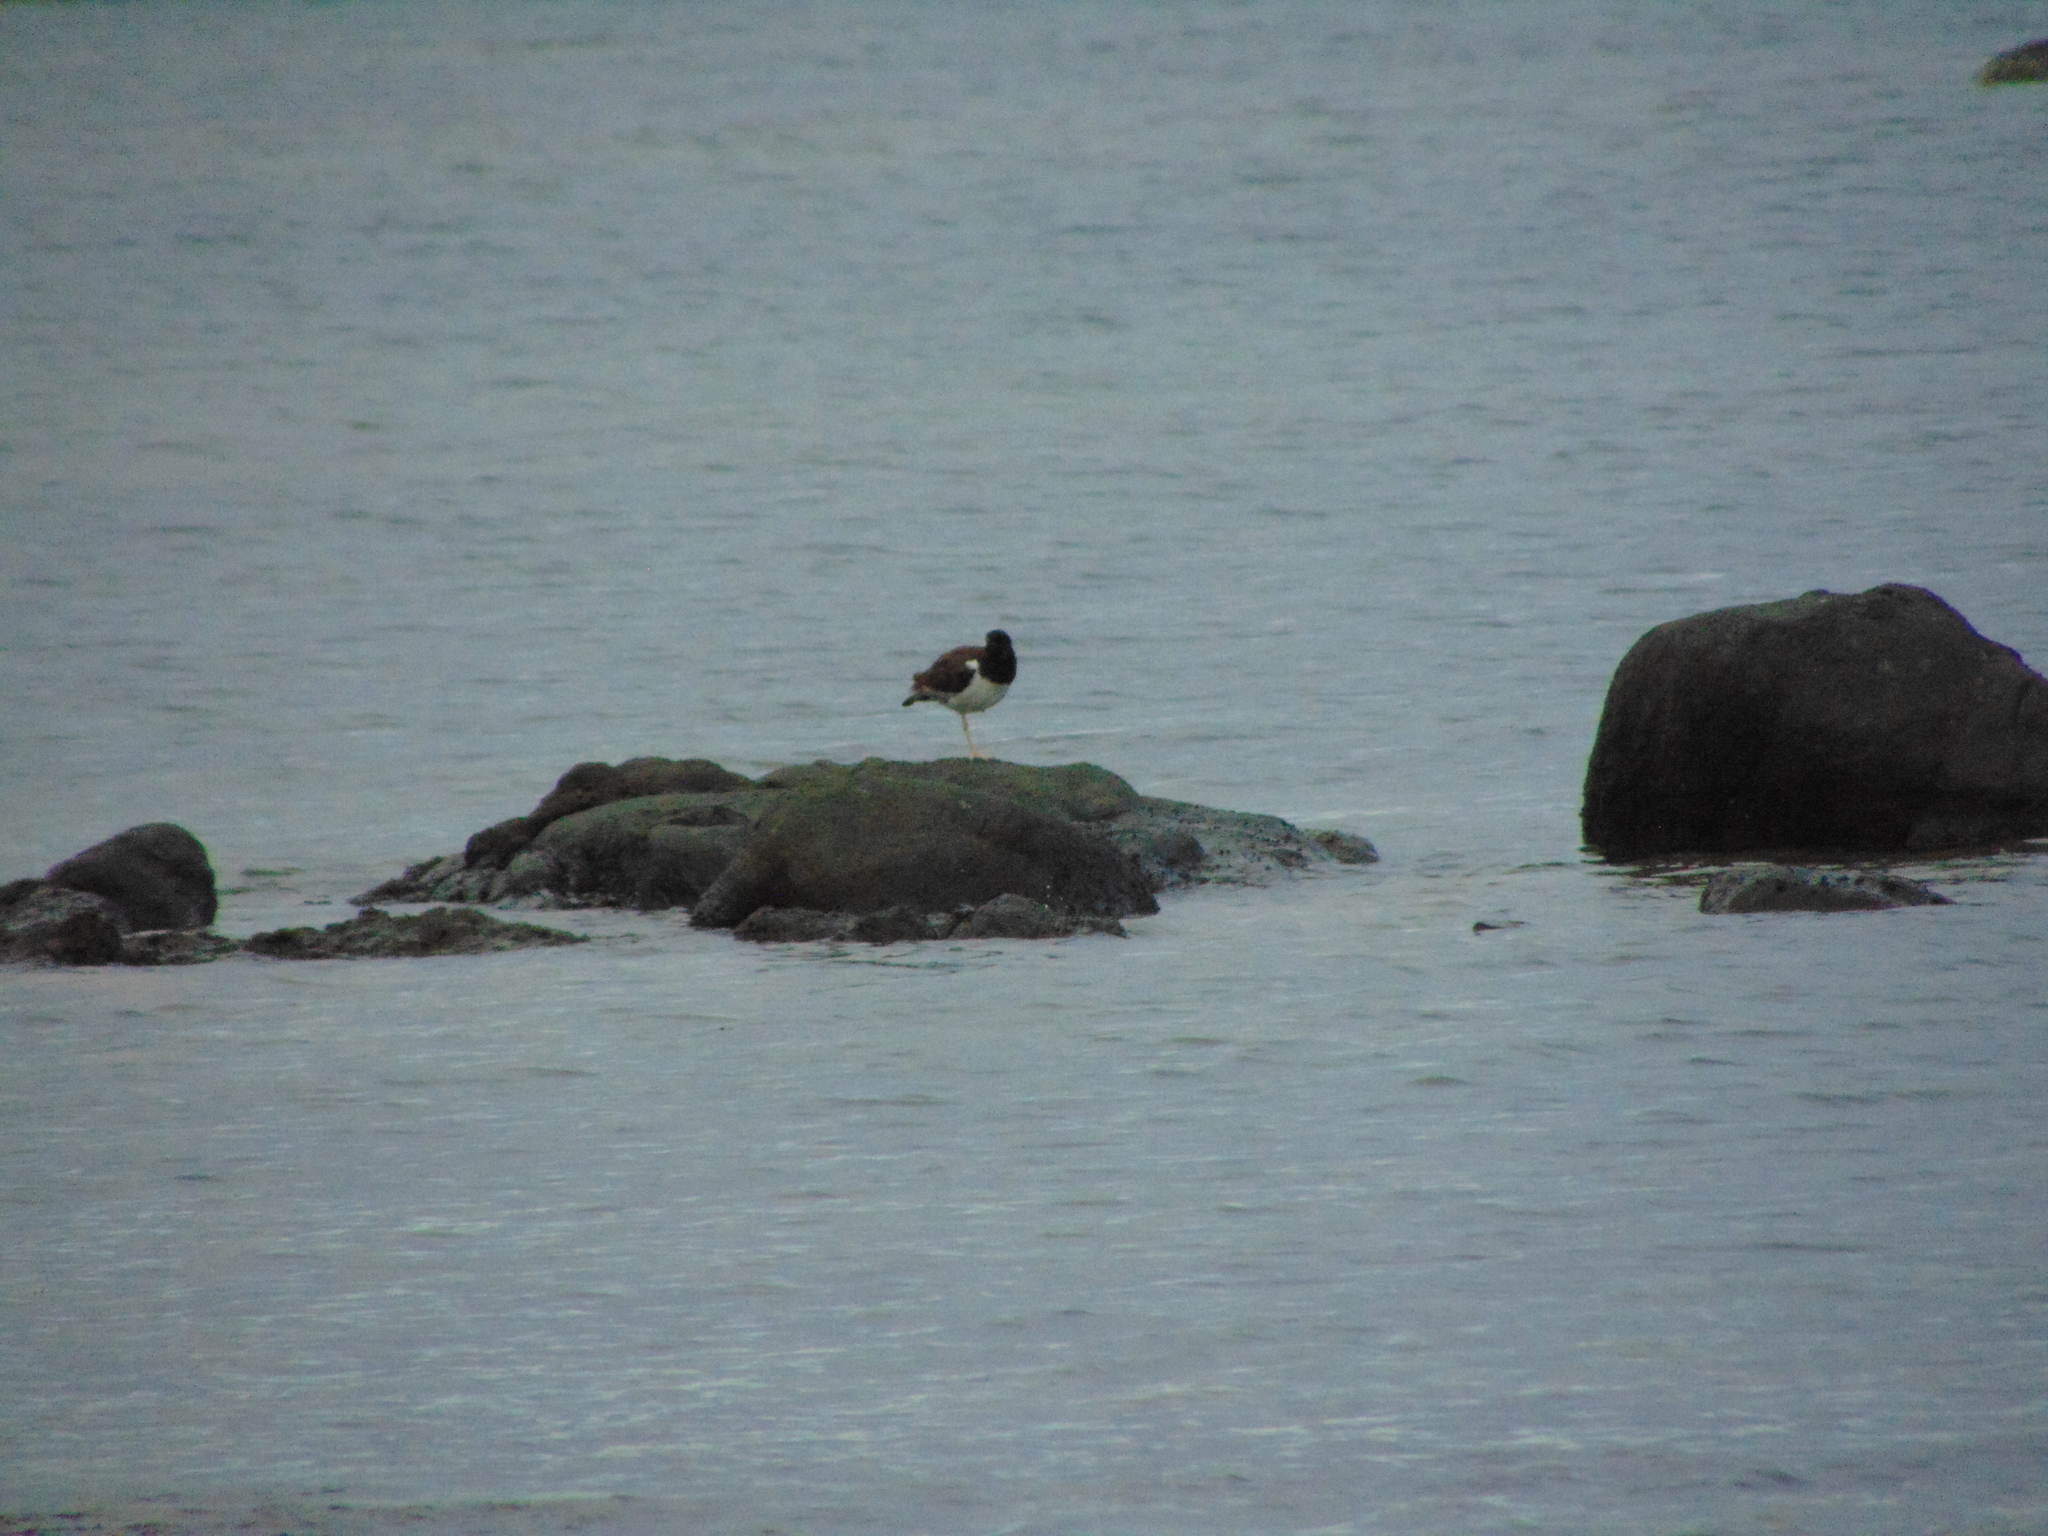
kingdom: Animalia
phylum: Chordata
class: Aves
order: Charadriiformes
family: Haematopodidae
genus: Haematopus
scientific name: Haematopus palliatus
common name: American oystercatcher
